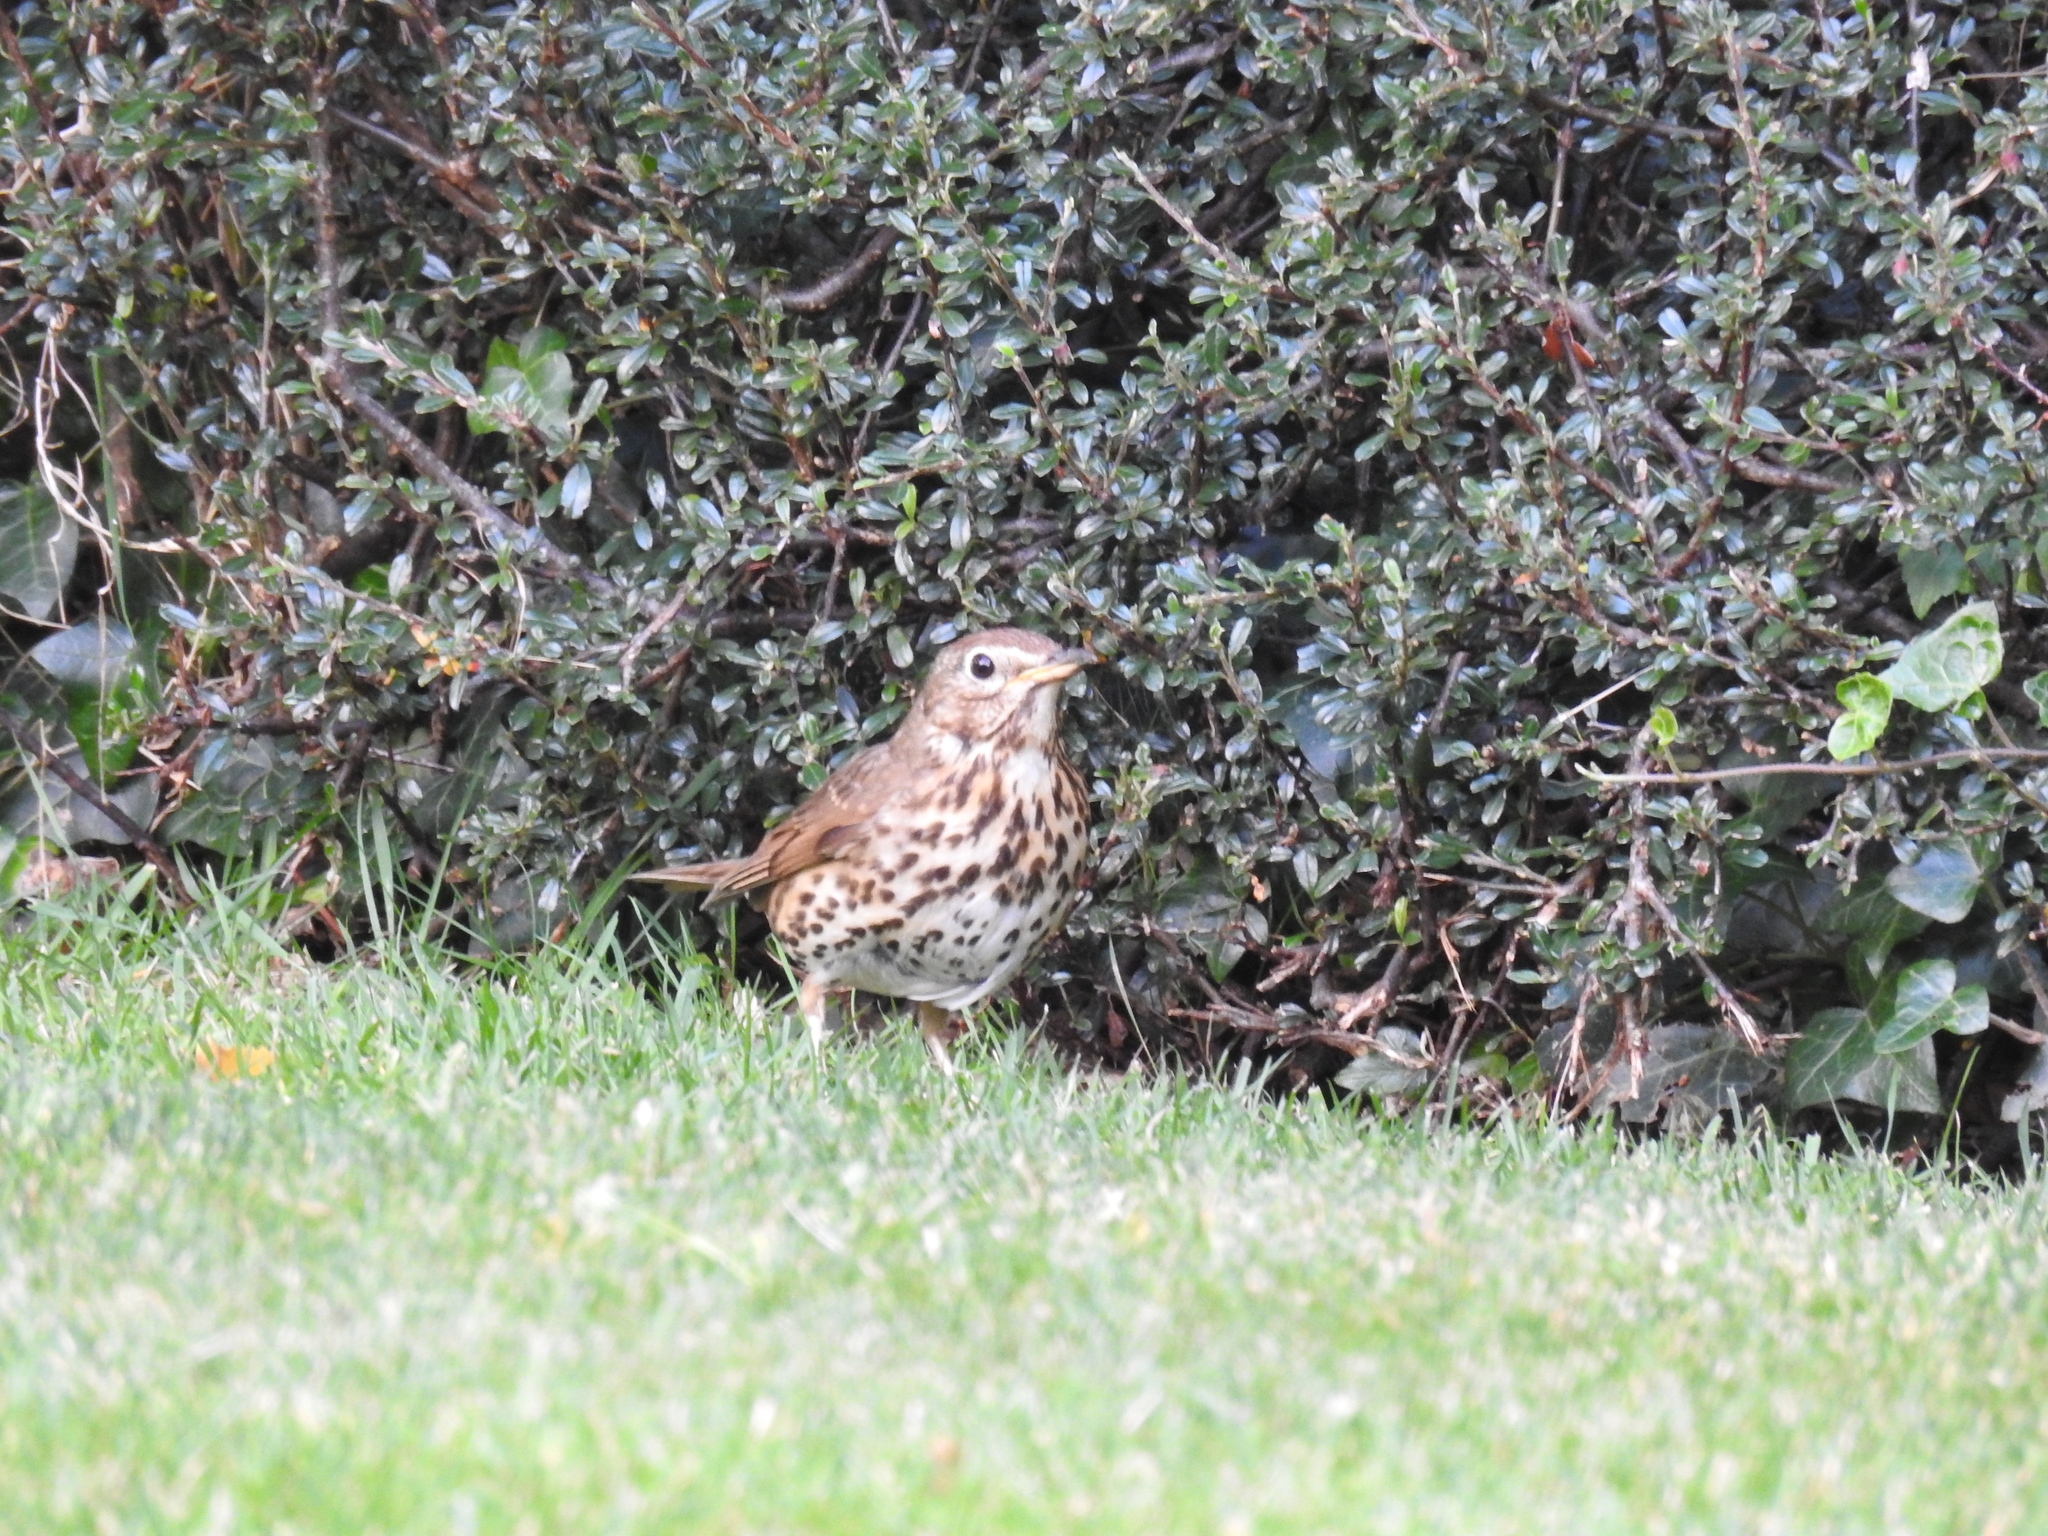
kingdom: Animalia
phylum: Chordata
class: Aves
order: Passeriformes
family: Turdidae
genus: Turdus
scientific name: Turdus philomelos
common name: Song thrush
